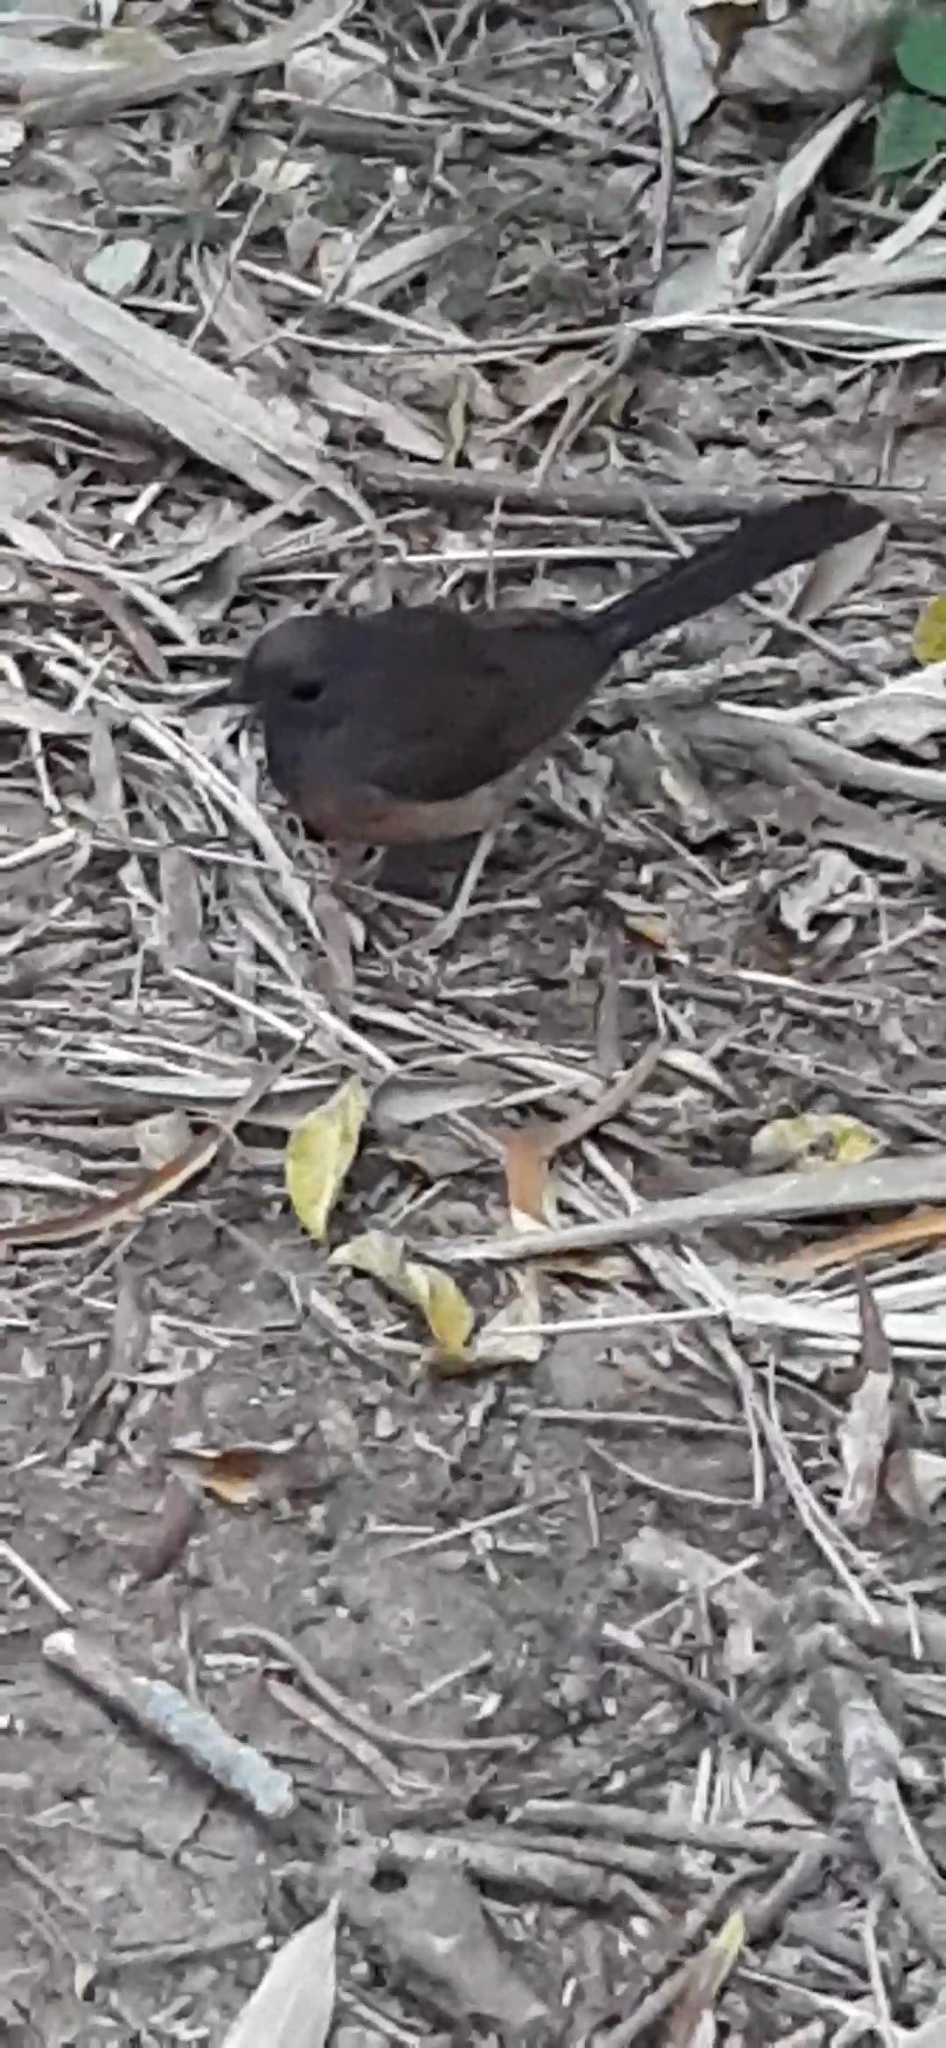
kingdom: Animalia
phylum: Chordata
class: Aves
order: Passeriformes
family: Muscicapidae
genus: Copsychus
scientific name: Copsychus malabaricus
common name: White-rumped shama
